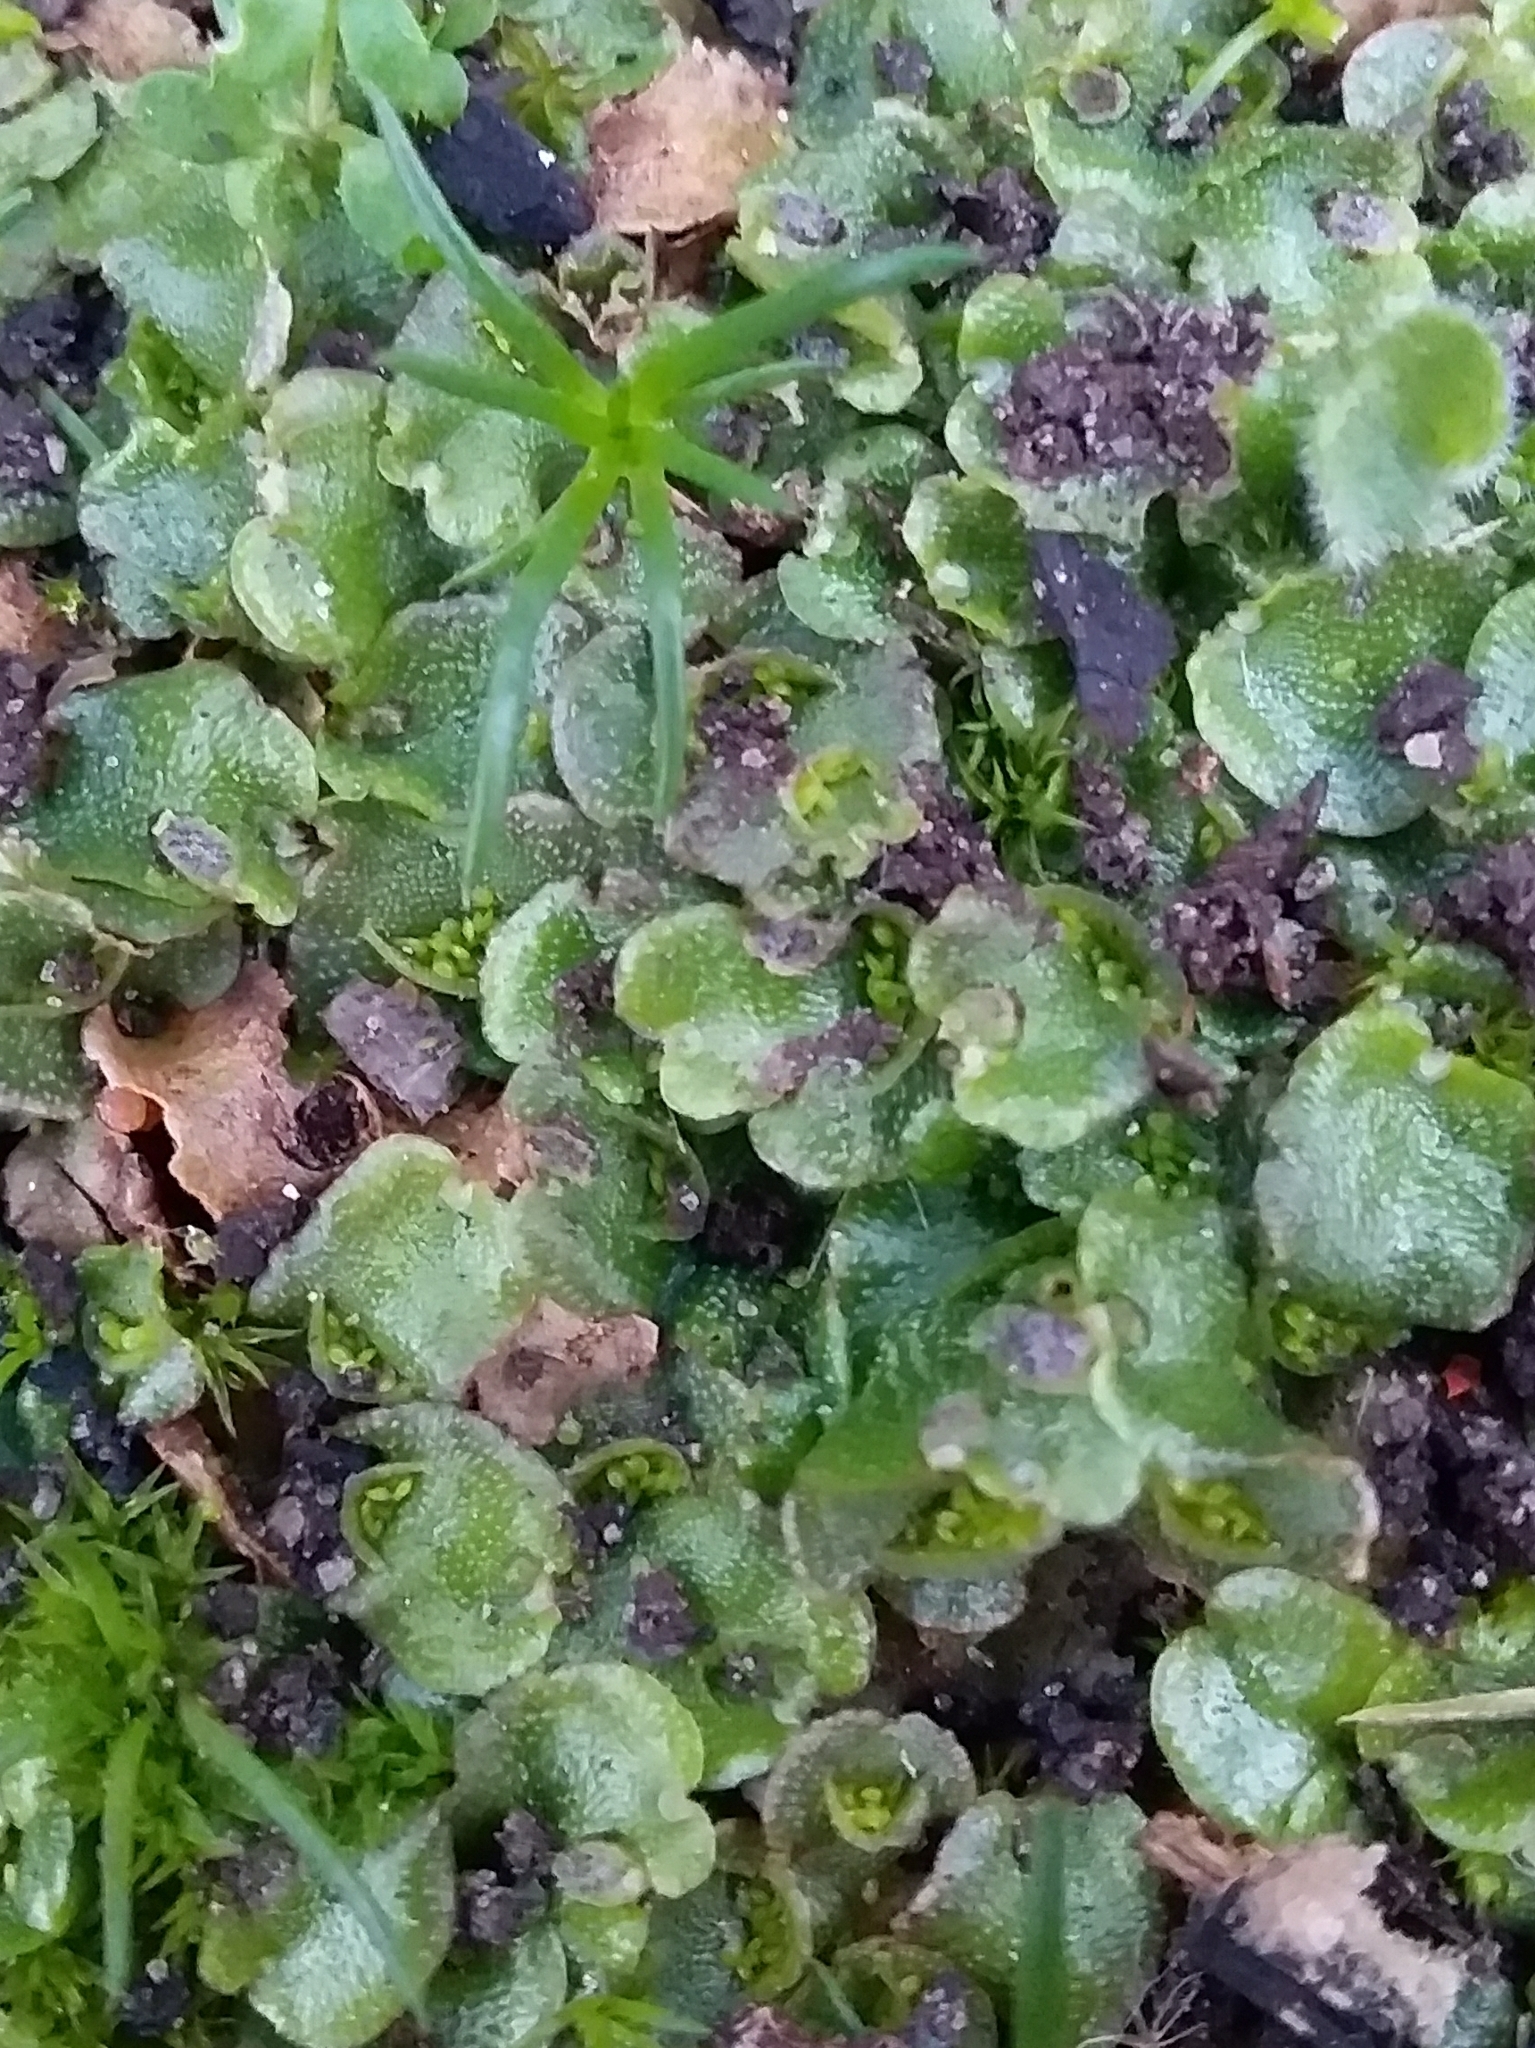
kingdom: Plantae
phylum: Marchantiophyta
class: Marchantiopsida
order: Lunulariales
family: Lunulariaceae
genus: Lunularia
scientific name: Lunularia cruciata
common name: Crescent-cup liverwort
